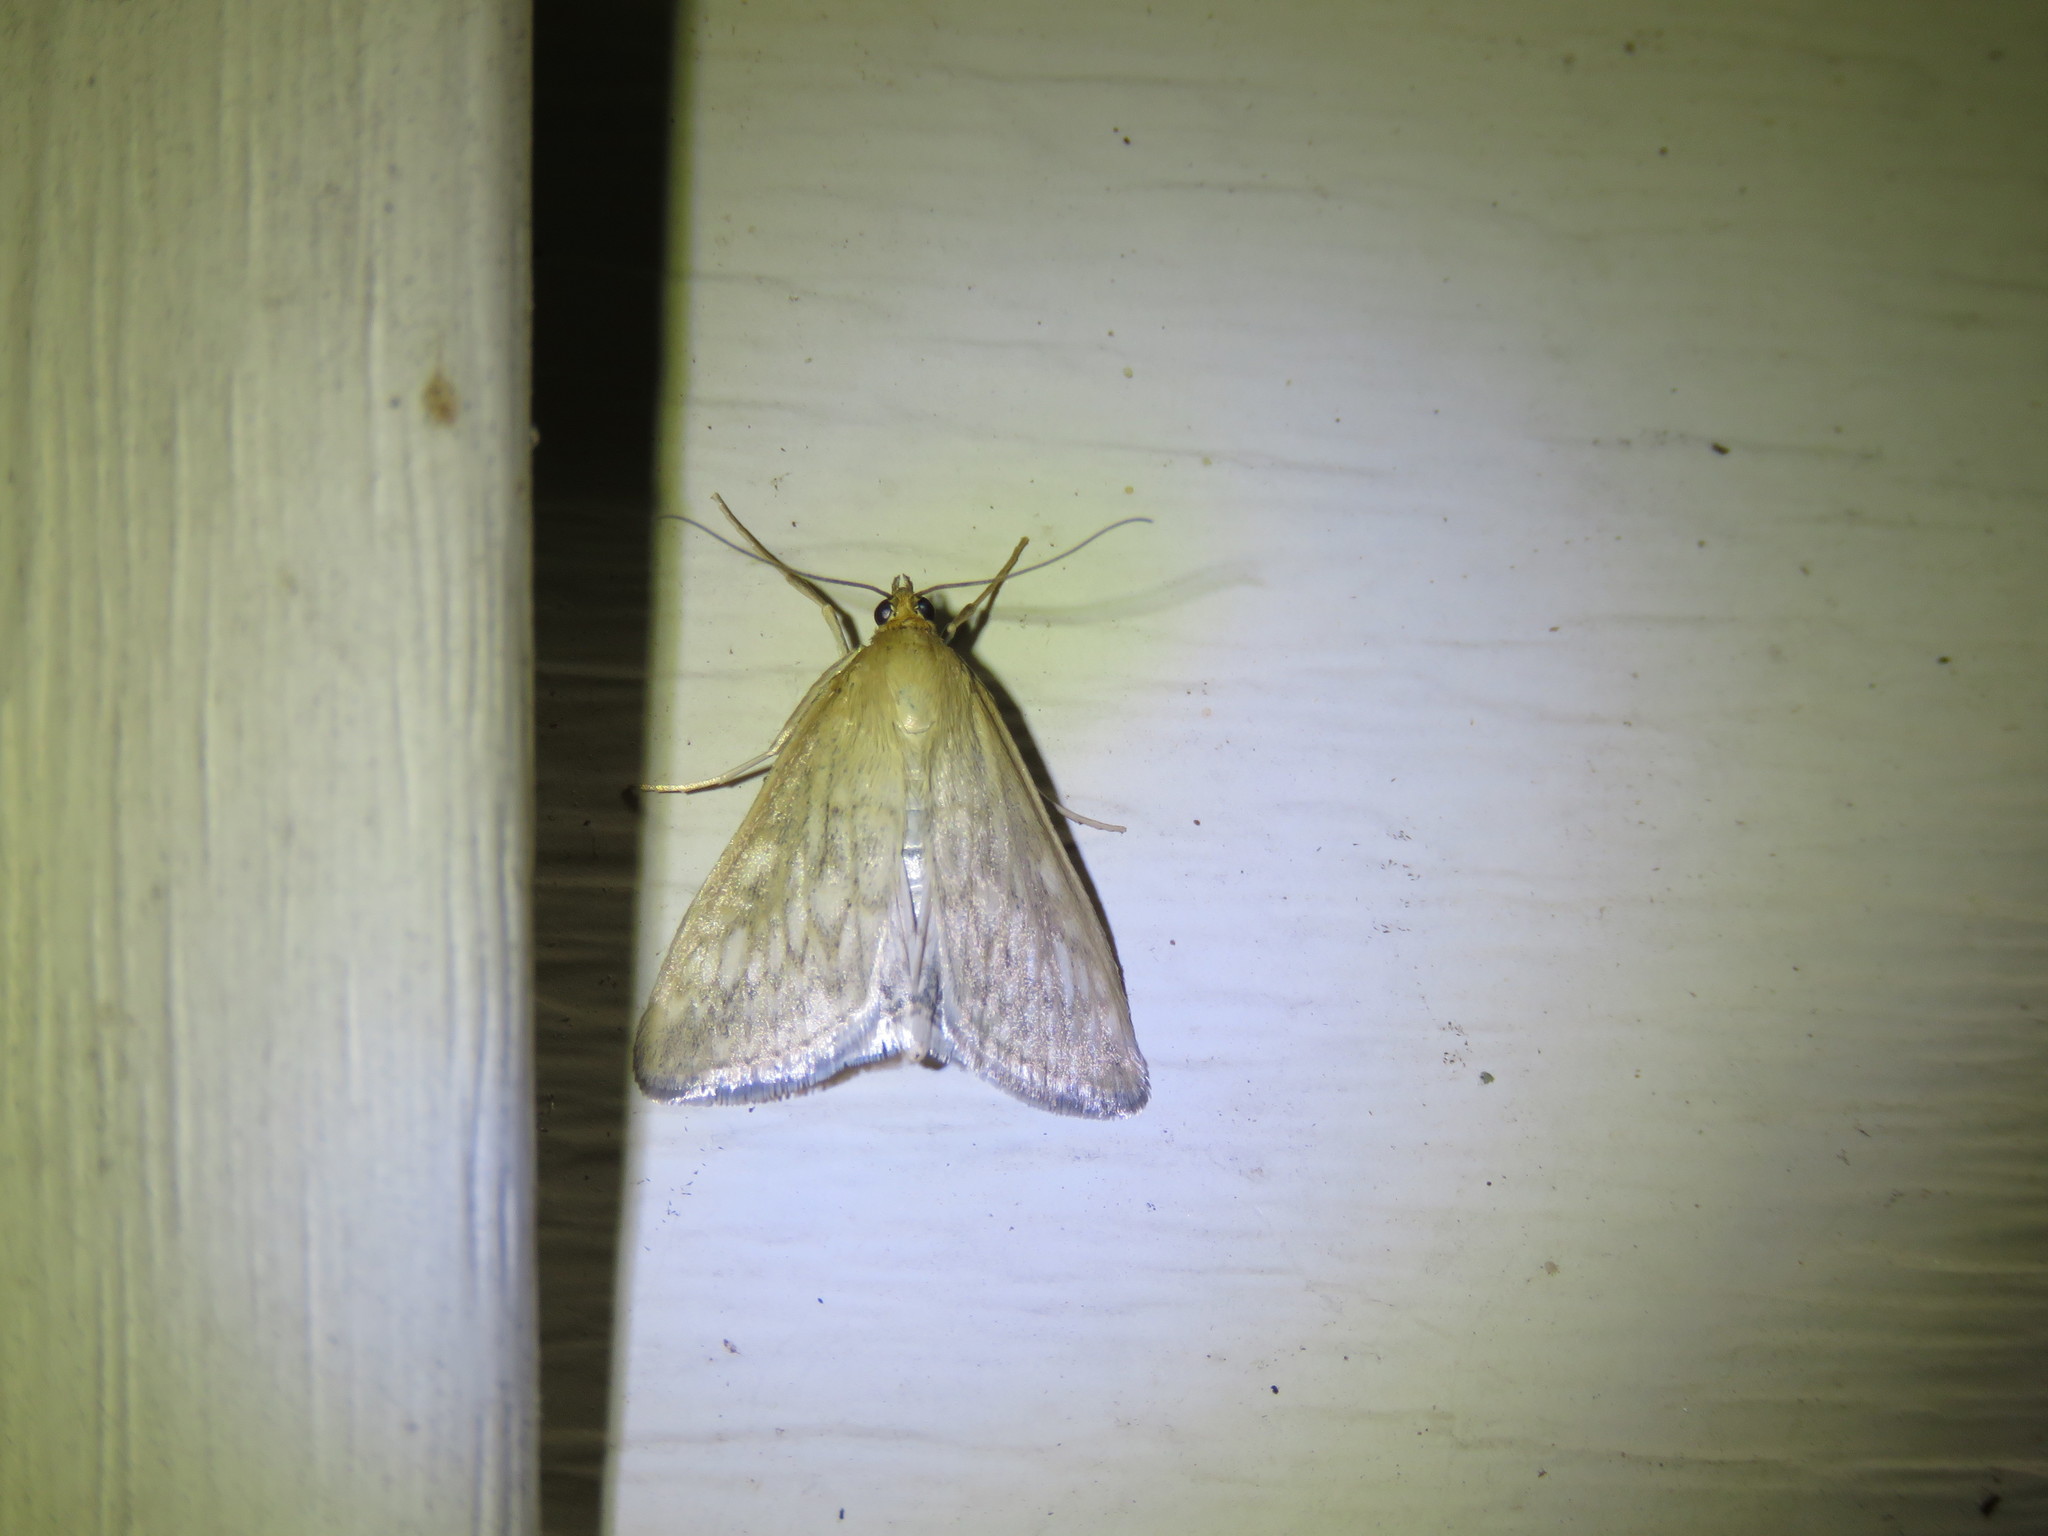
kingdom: Animalia
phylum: Arthropoda
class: Insecta
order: Lepidoptera
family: Crambidae
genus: Sitochroa
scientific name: Sitochroa chortalis
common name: Dimorphic sitochroa moth
